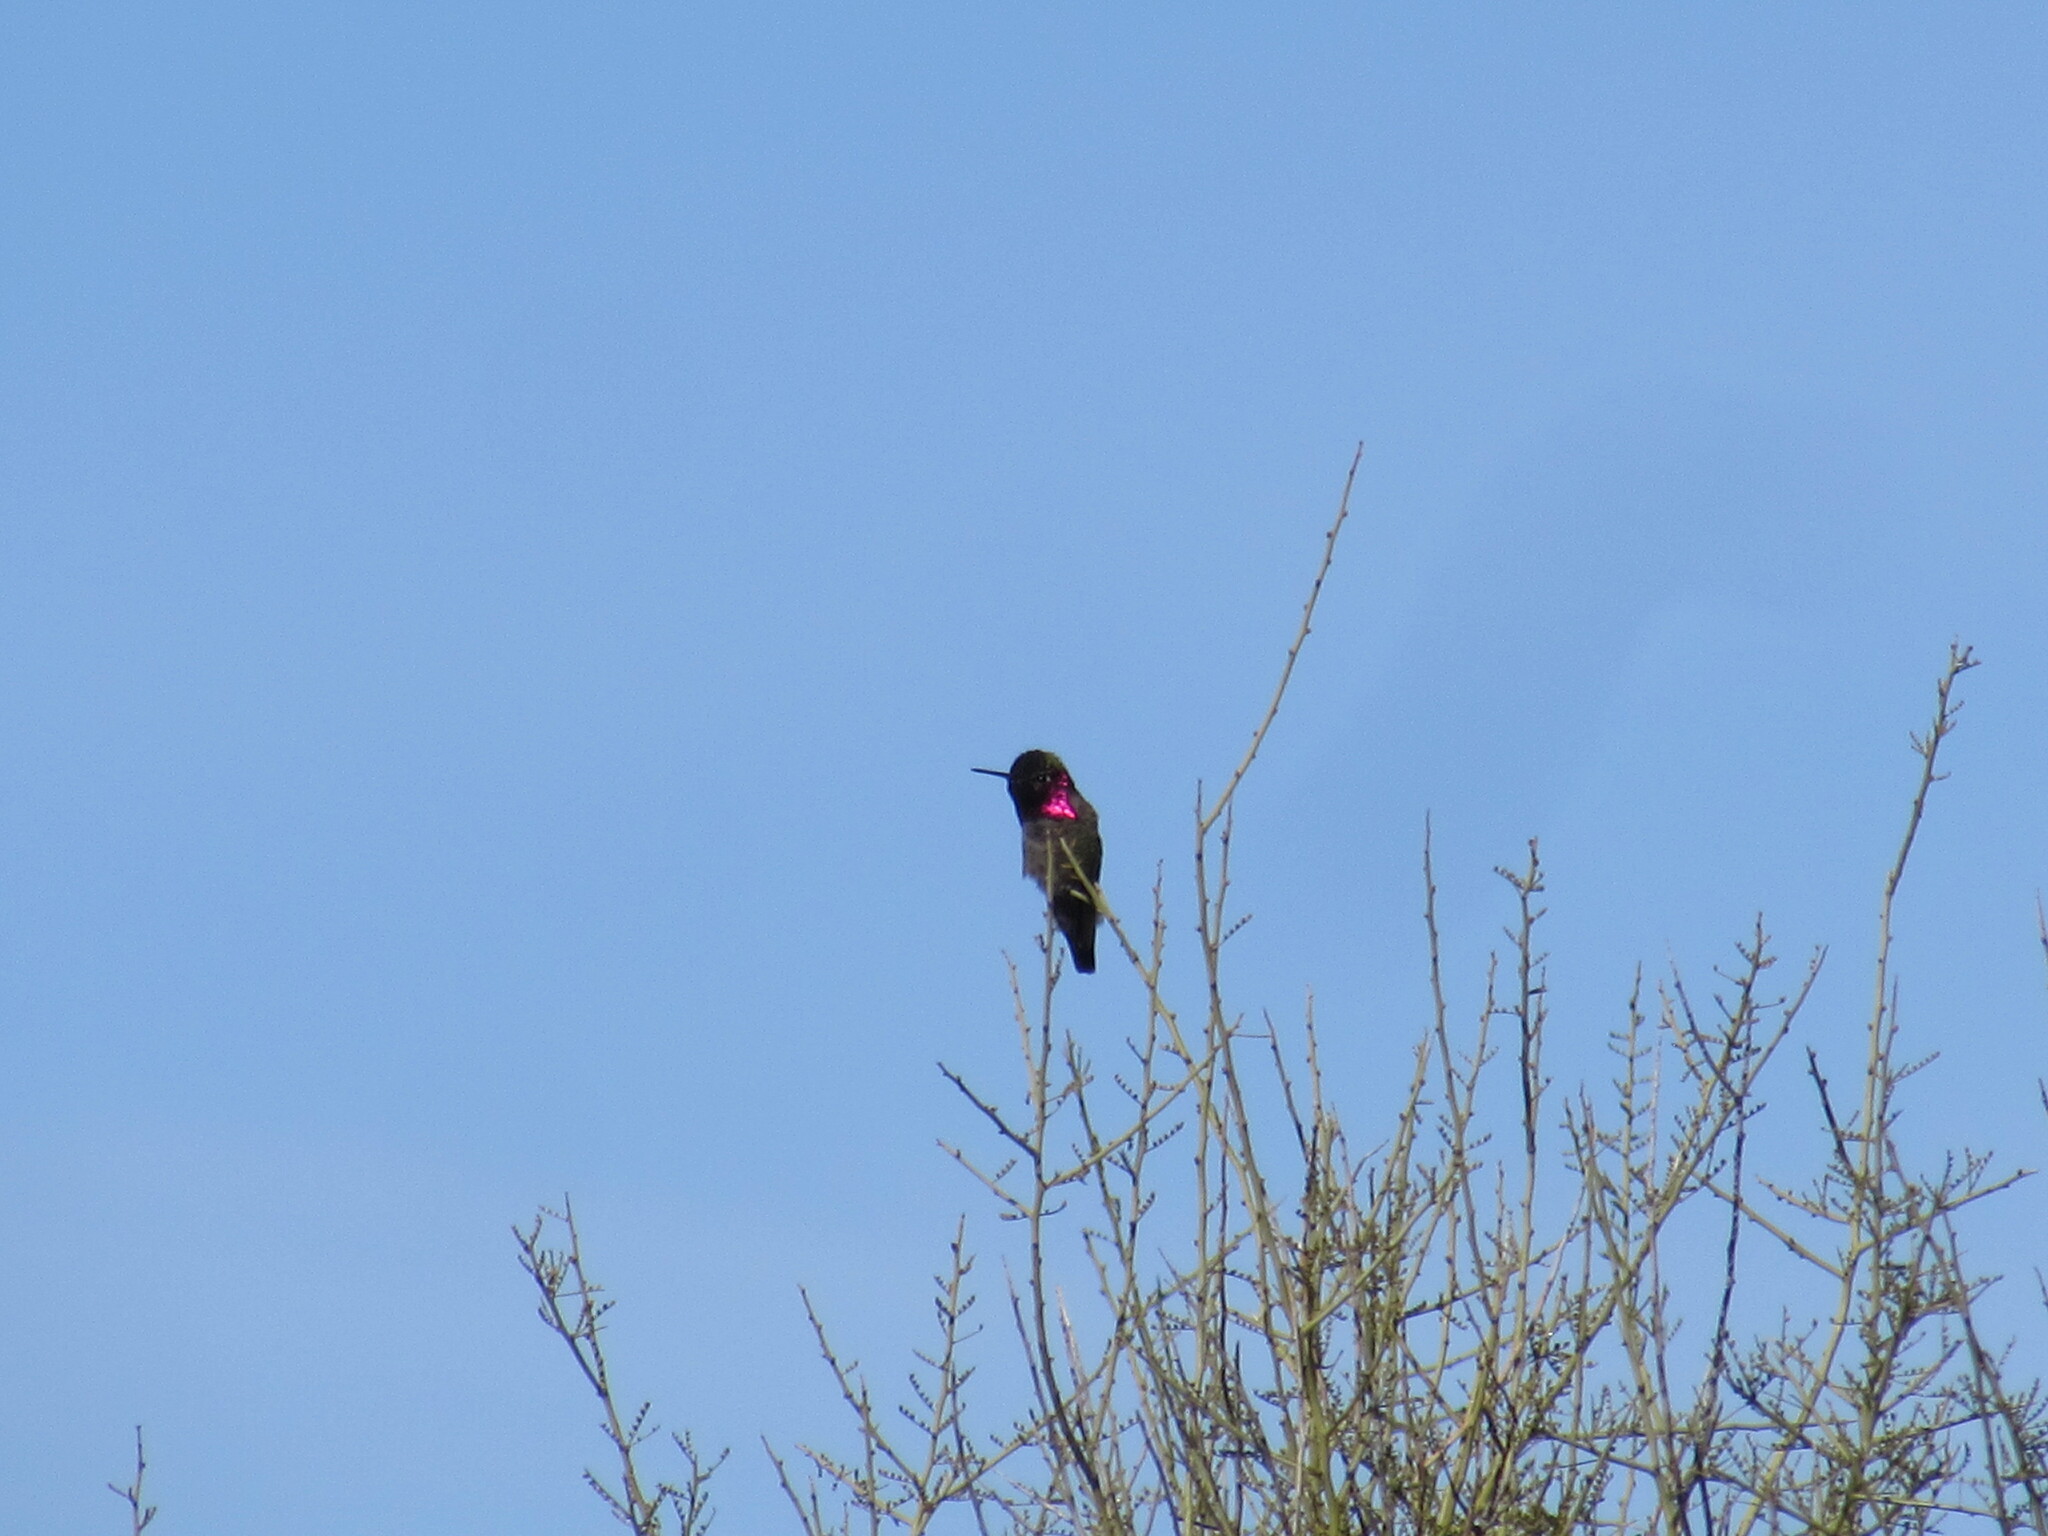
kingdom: Animalia
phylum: Chordata
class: Aves
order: Apodiformes
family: Trochilidae
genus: Calypte
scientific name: Calypte anna
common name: Anna's hummingbird
